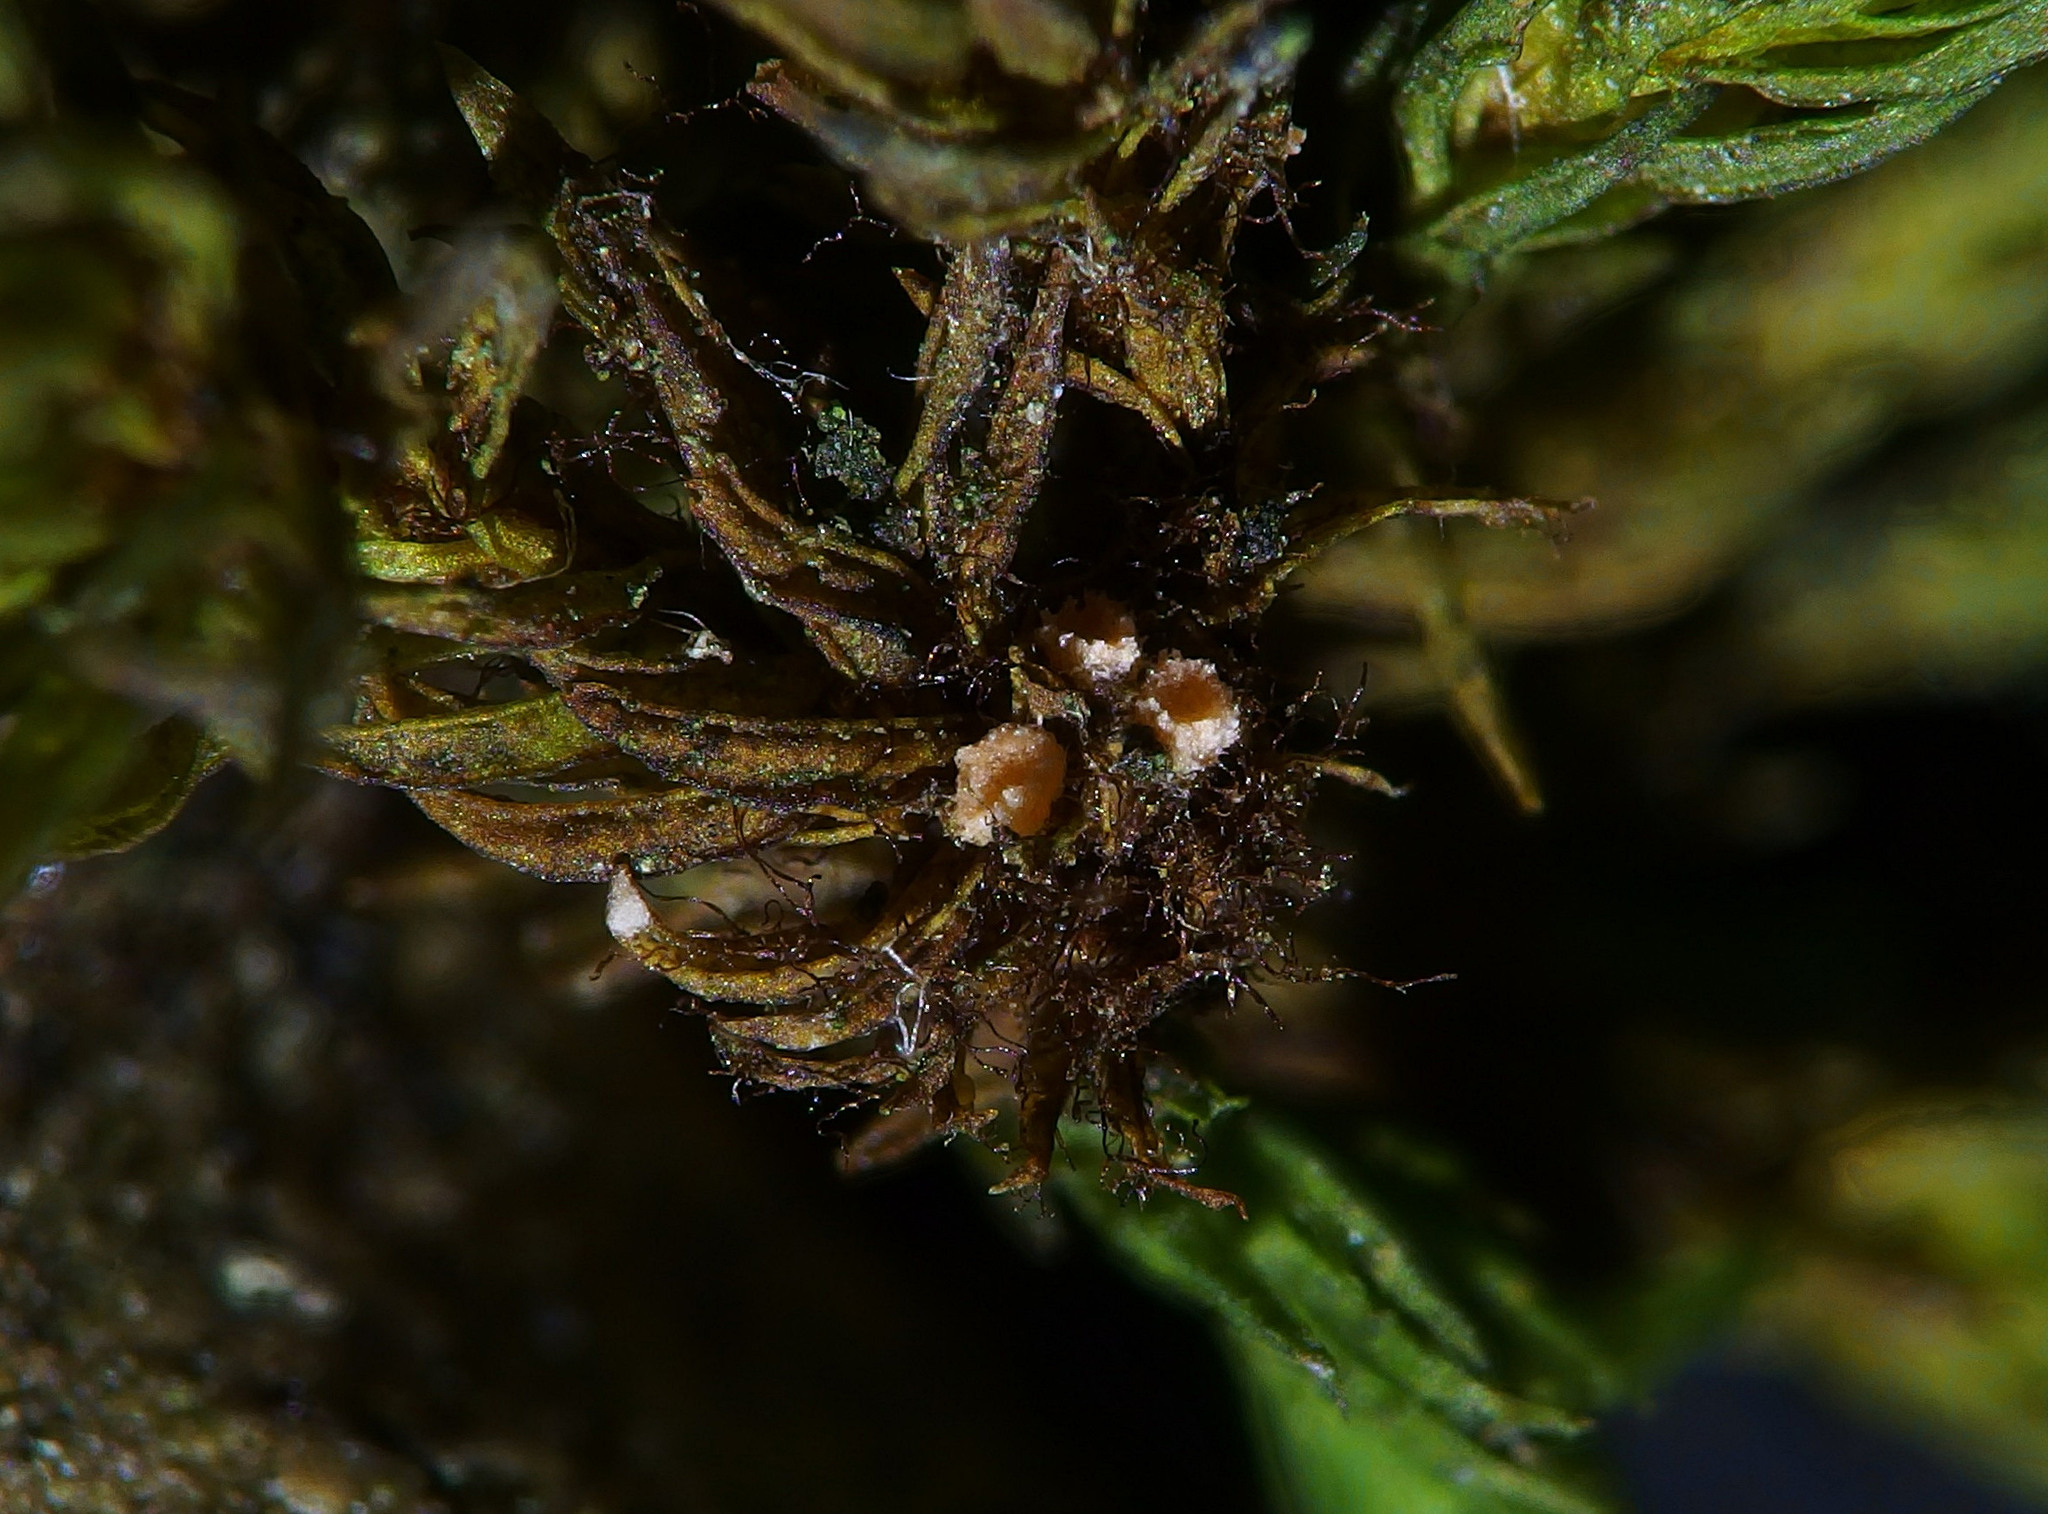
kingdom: Fungi
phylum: Ascomycota
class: Pezizomycetes
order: Pezizales
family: Pyronemataceae
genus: Octospora
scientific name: Octospora affinis
